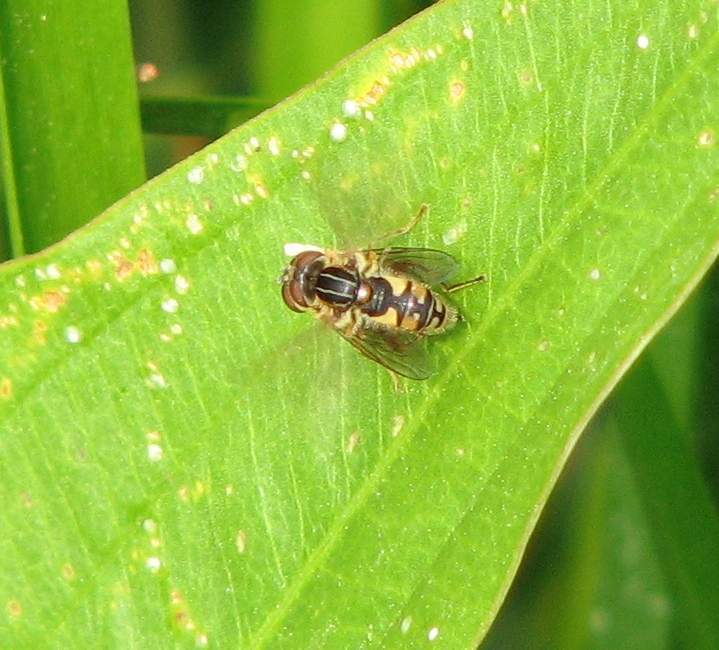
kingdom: Animalia
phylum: Arthropoda
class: Insecta
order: Diptera
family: Syrphidae
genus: Eurimyia
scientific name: Eurimyia stipatus
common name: Long-nosed swamp fly
